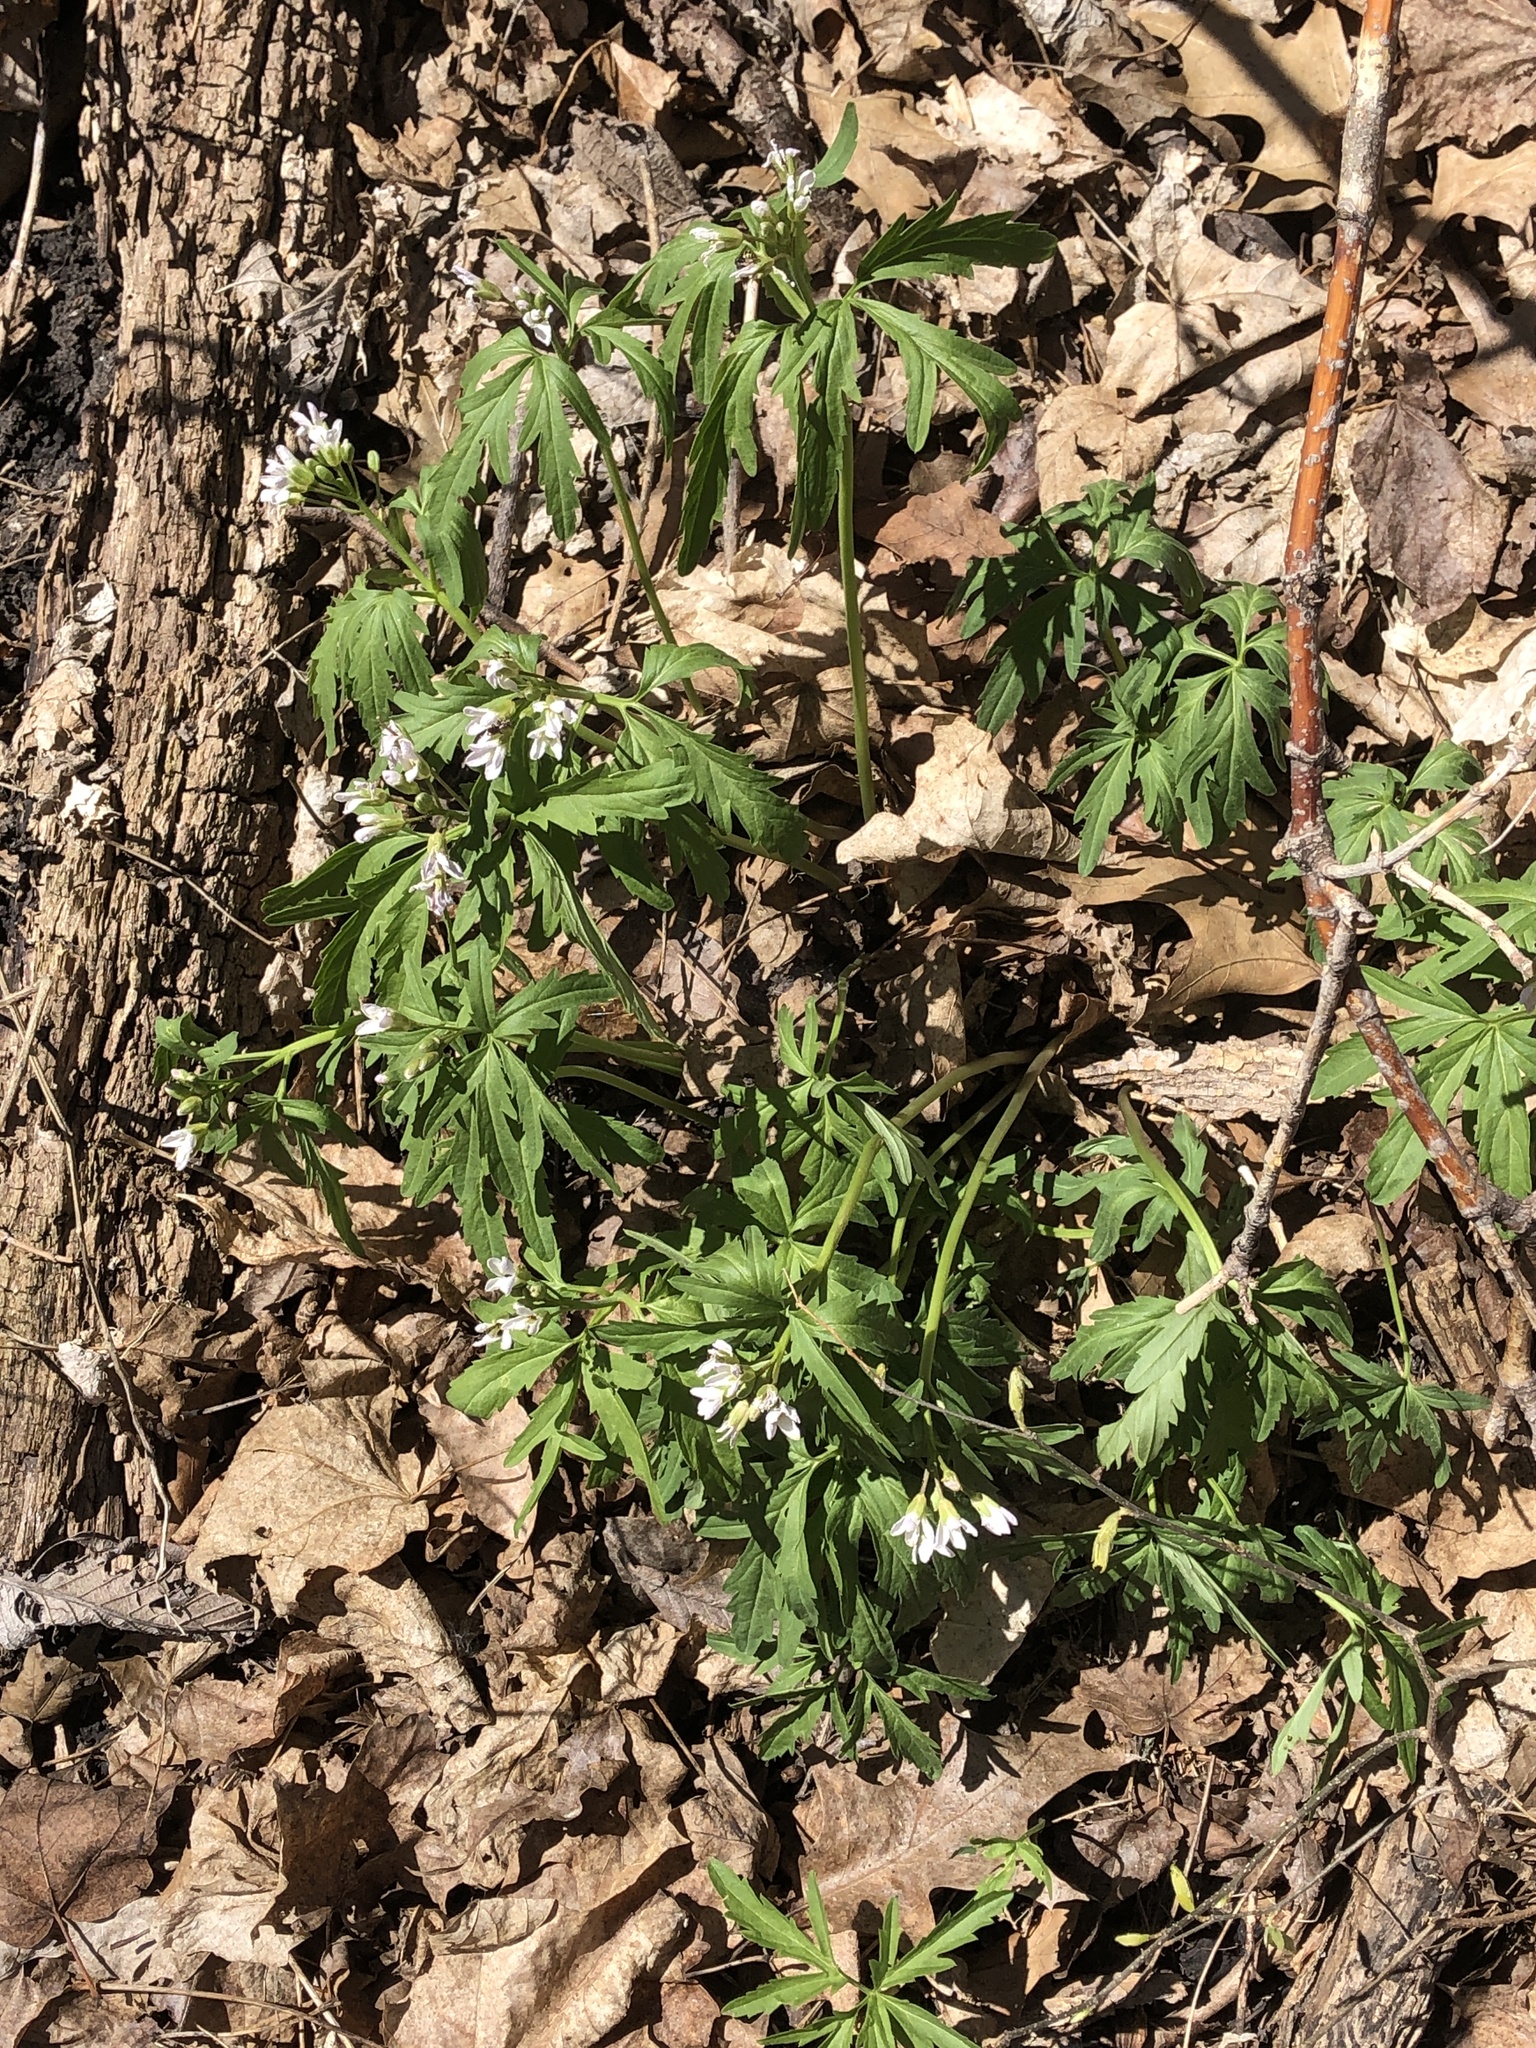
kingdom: Plantae
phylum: Tracheophyta
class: Magnoliopsida
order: Brassicales
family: Brassicaceae
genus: Cardamine
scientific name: Cardamine concatenata
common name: Cut-leaf toothcup
